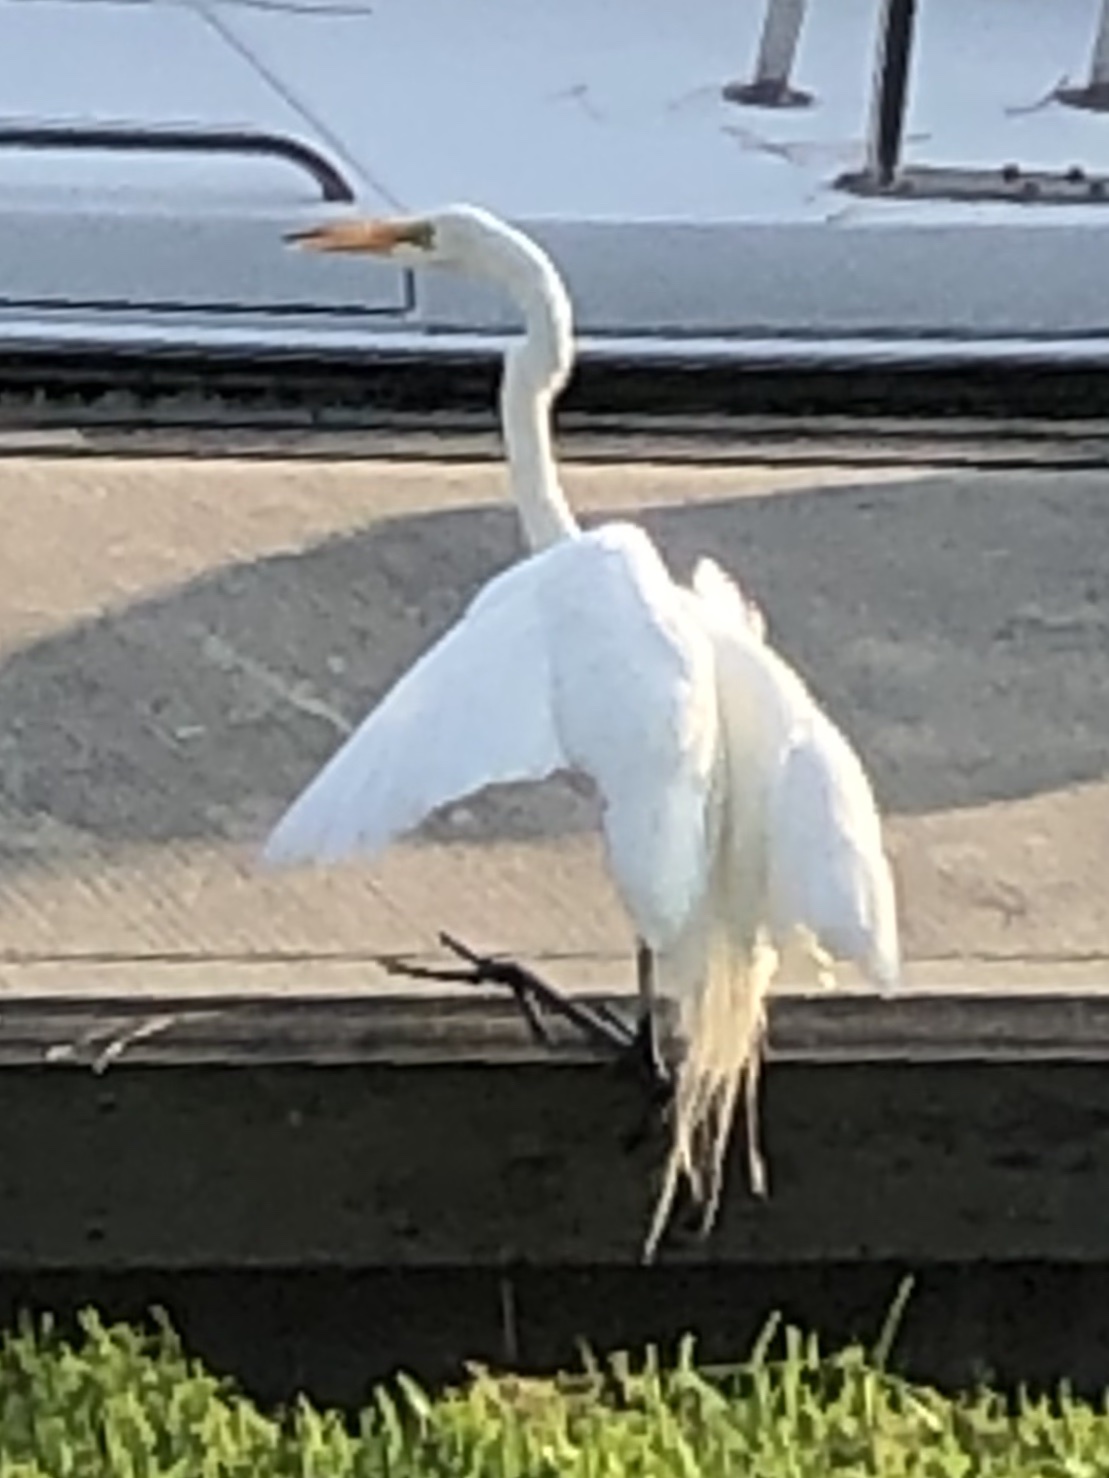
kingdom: Animalia
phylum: Chordata
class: Aves
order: Pelecaniformes
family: Ardeidae
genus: Ardea
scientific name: Ardea alba
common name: Great egret
